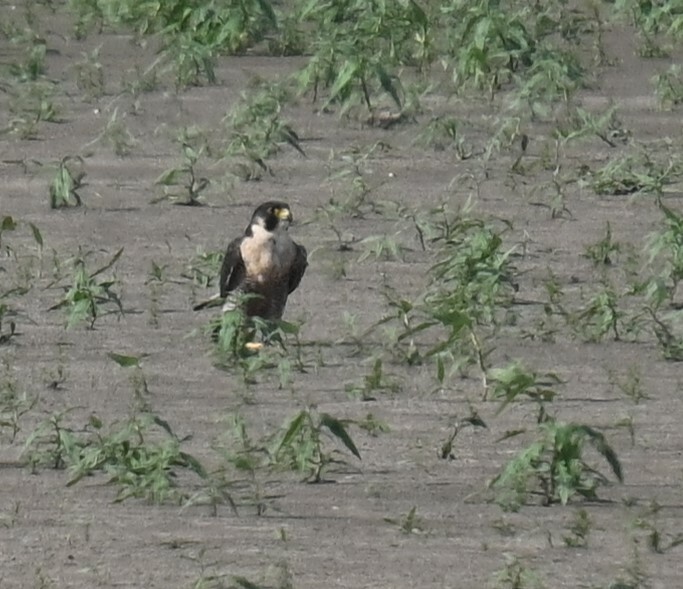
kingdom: Animalia
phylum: Chordata
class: Aves
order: Falconiformes
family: Falconidae
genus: Falco
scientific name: Falco peregrinus
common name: Peregrine falcon
